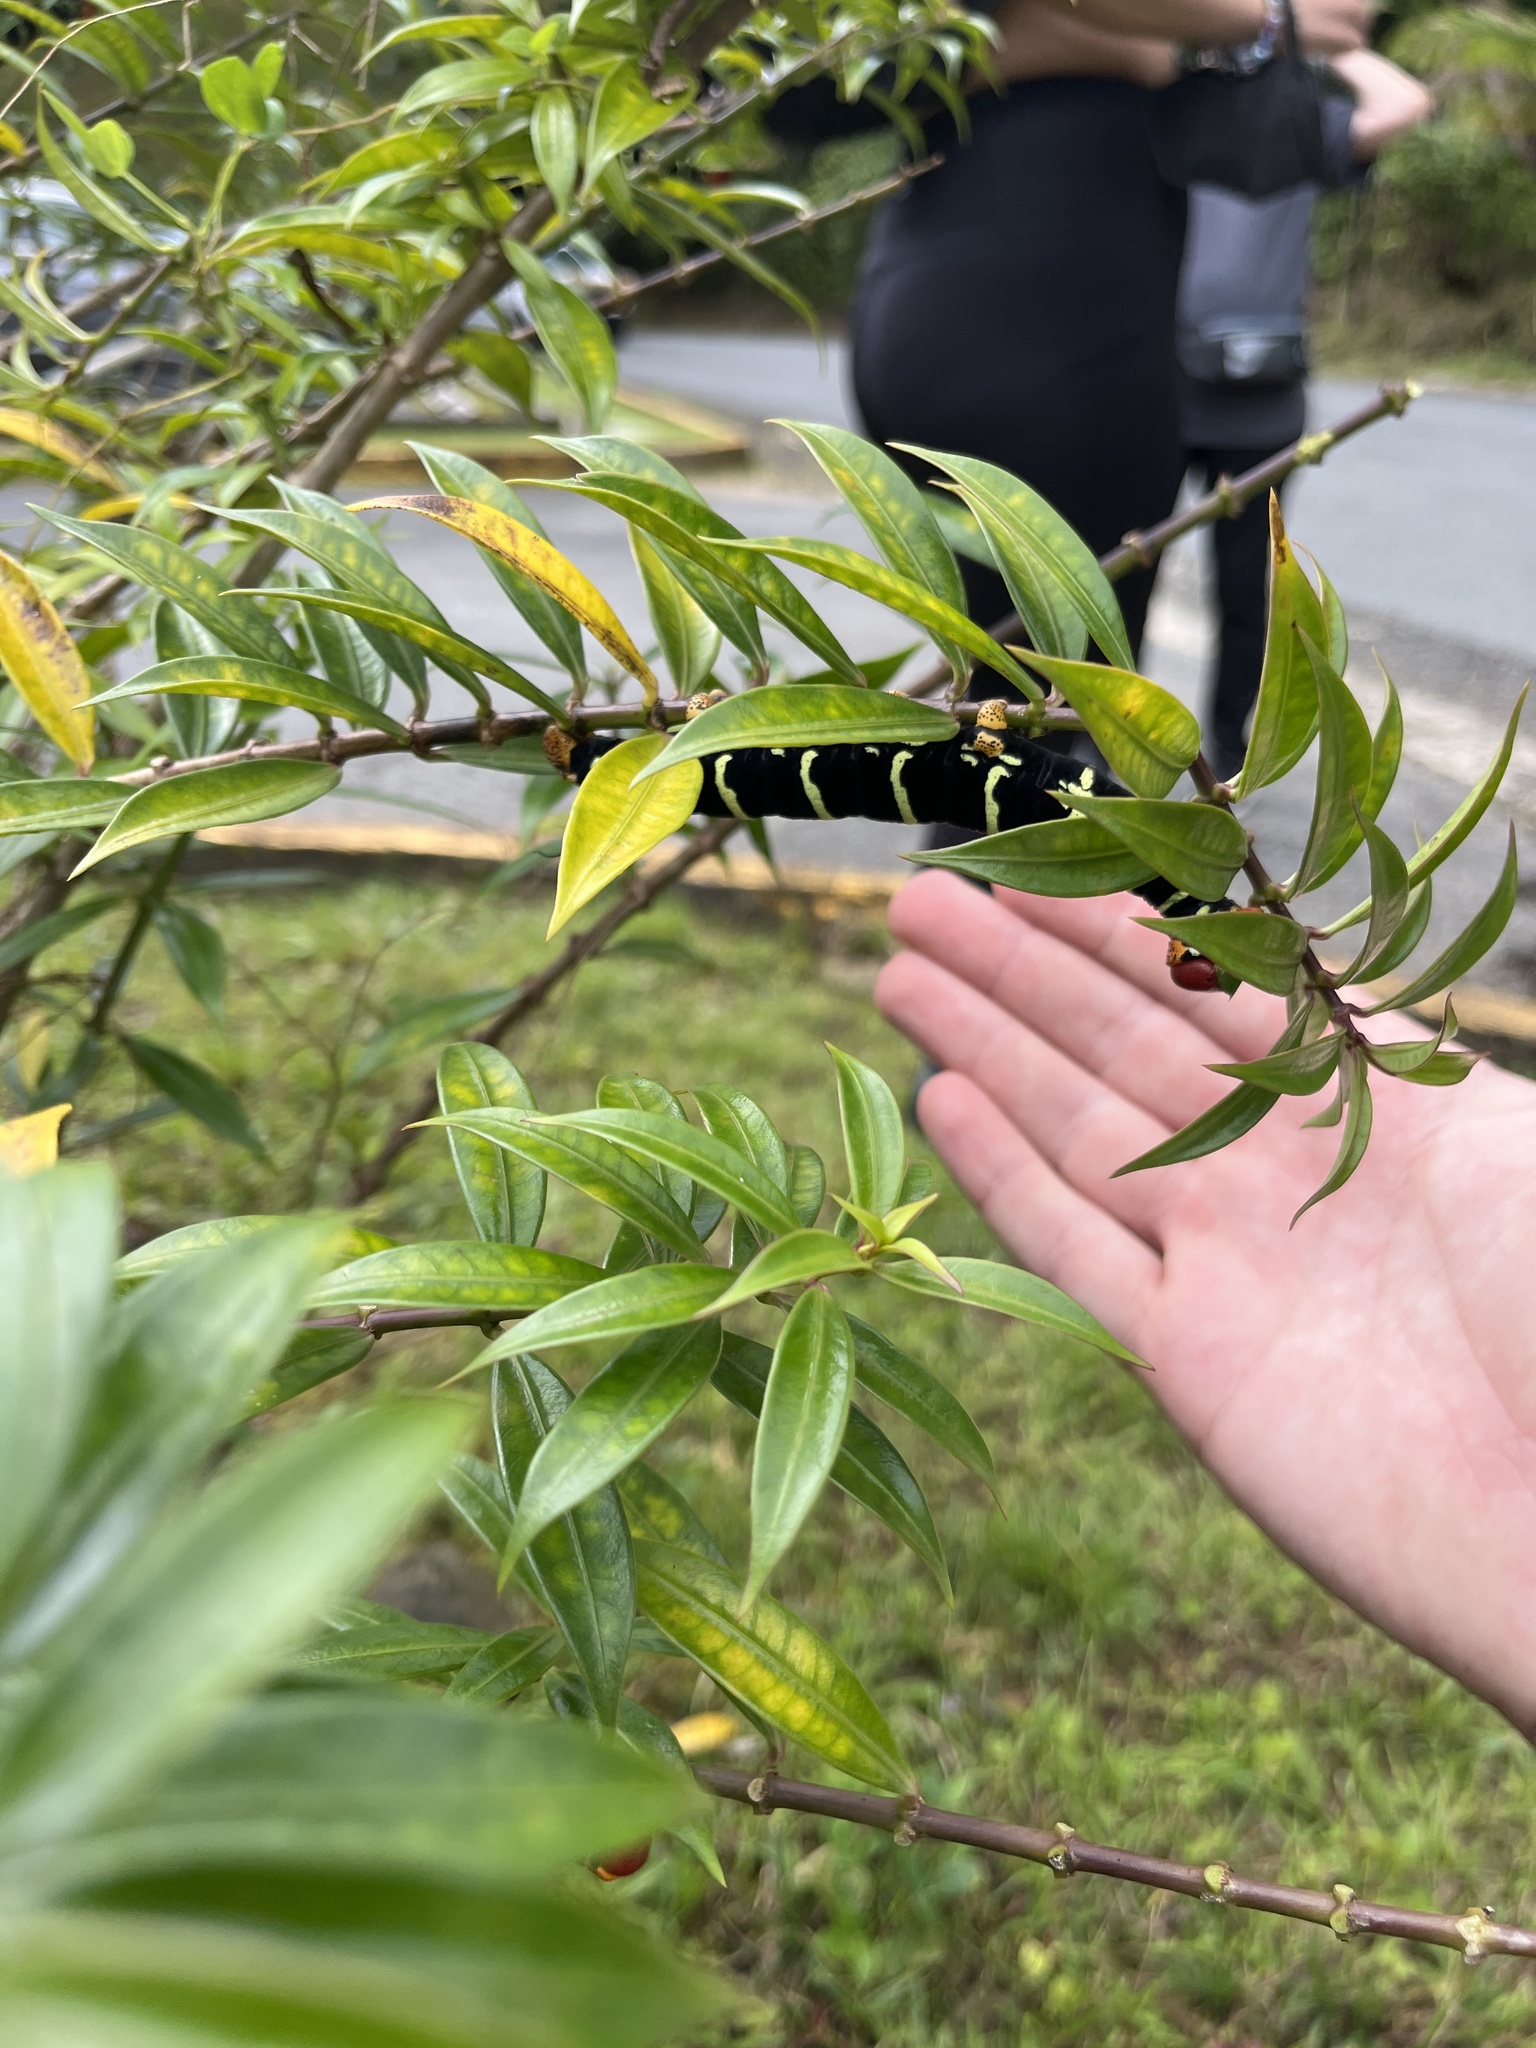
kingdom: Animalia
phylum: Arthropoda
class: Insecta
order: Lepidoptera
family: Sphingidae
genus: Pseudosphinx
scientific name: Pseudosphinx tetrio
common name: Tetrio sphinx
